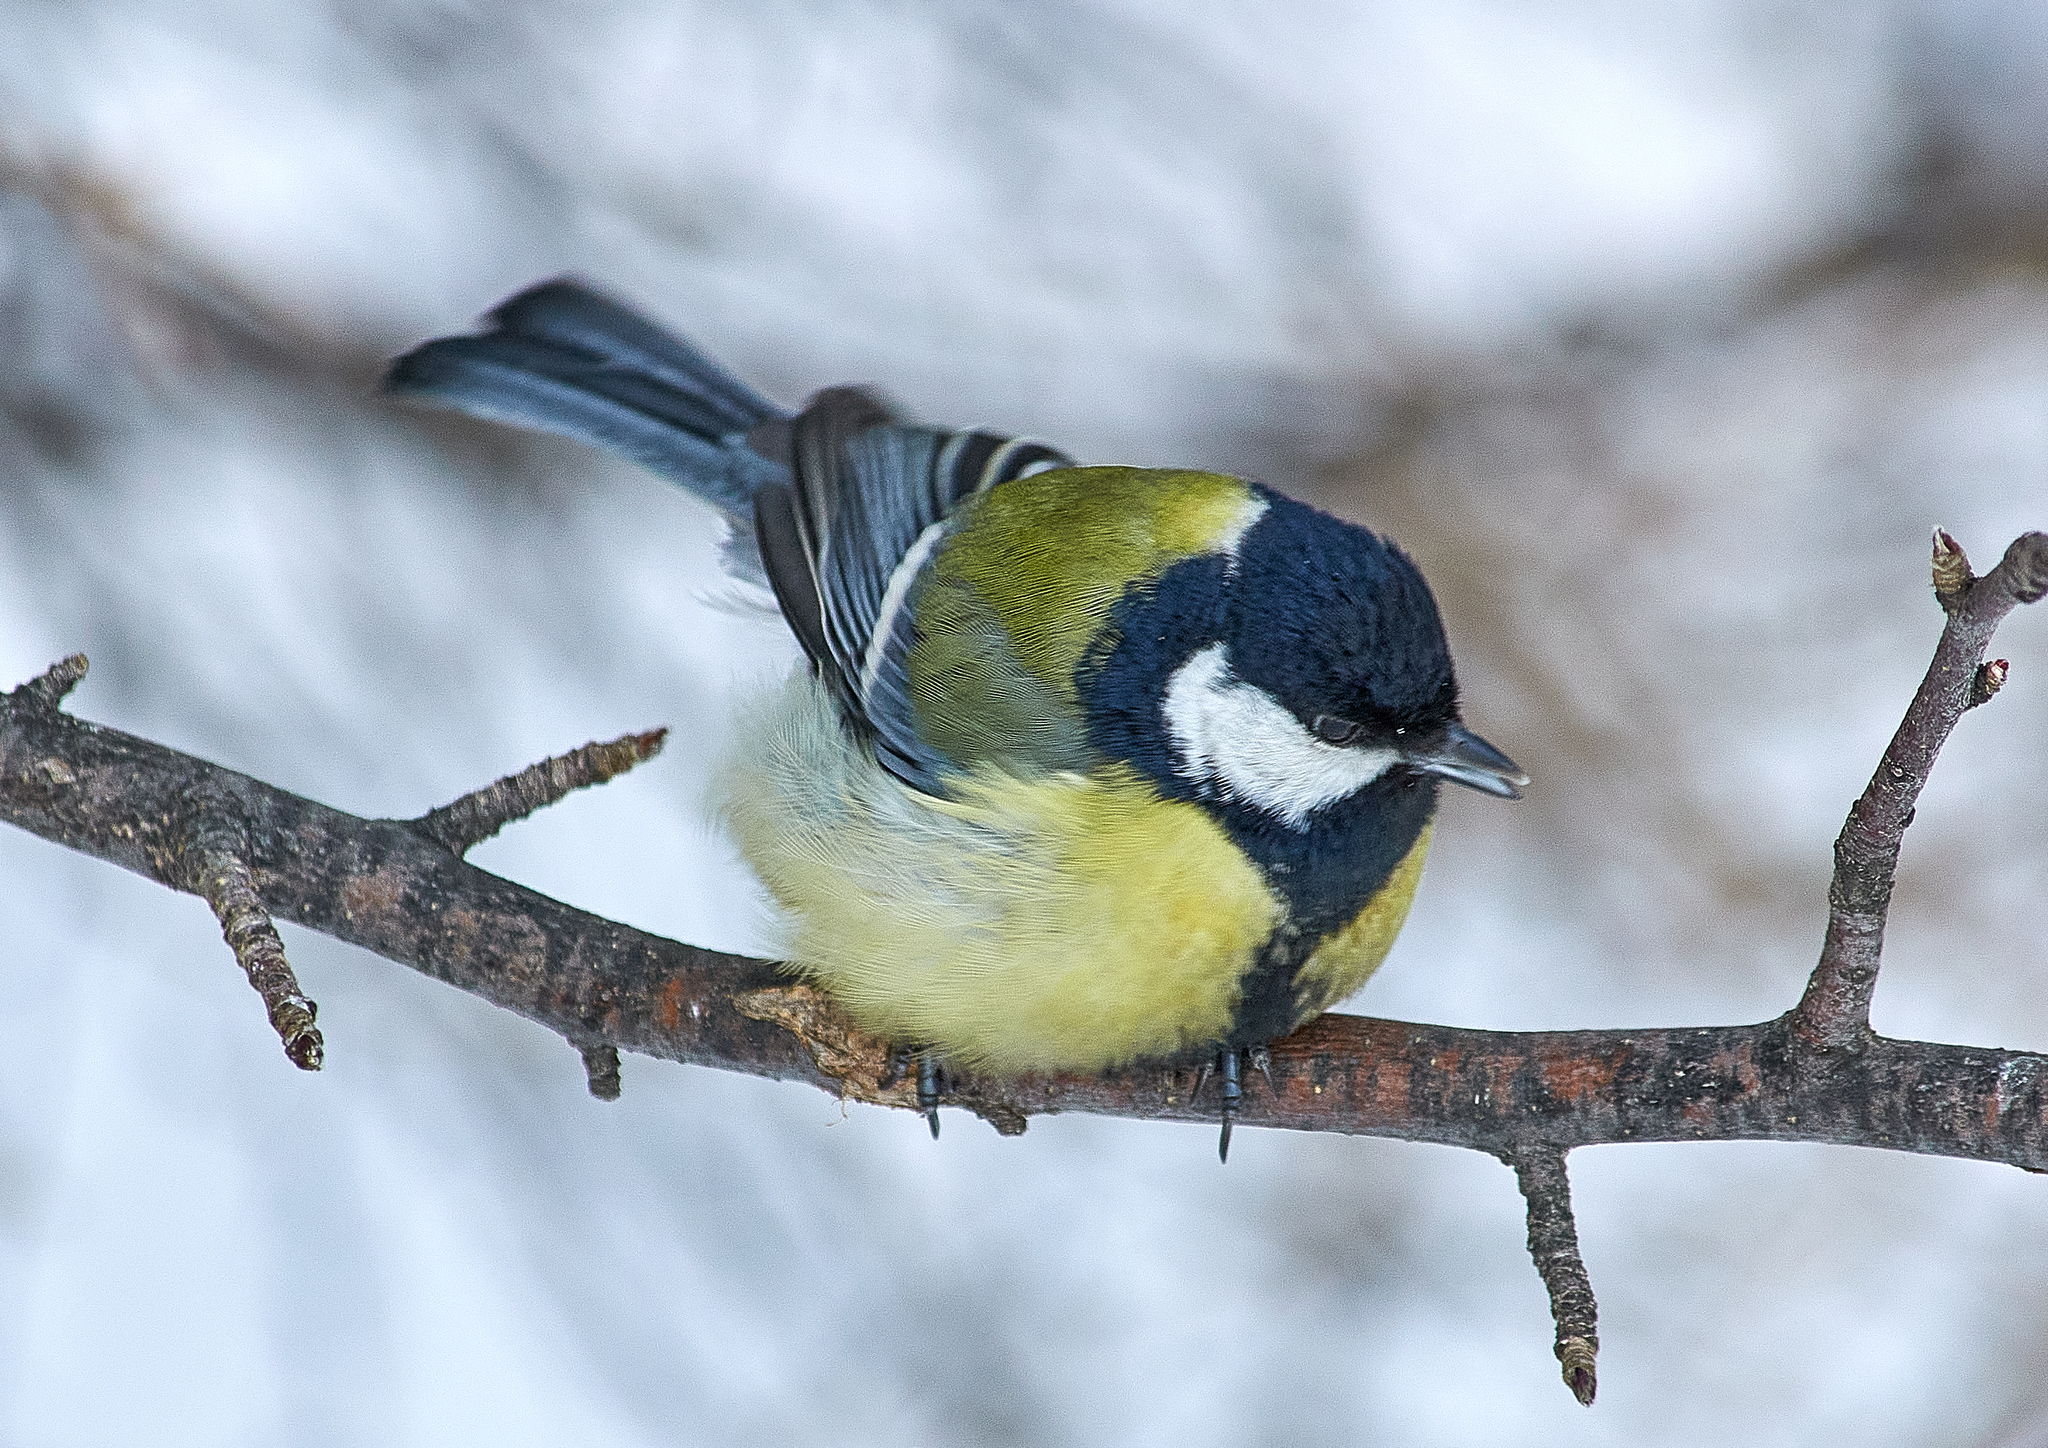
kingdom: Animalia
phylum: Chordata
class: Aves
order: Passeriformes
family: Paridae
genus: Parus
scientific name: Parus major
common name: Great tit
